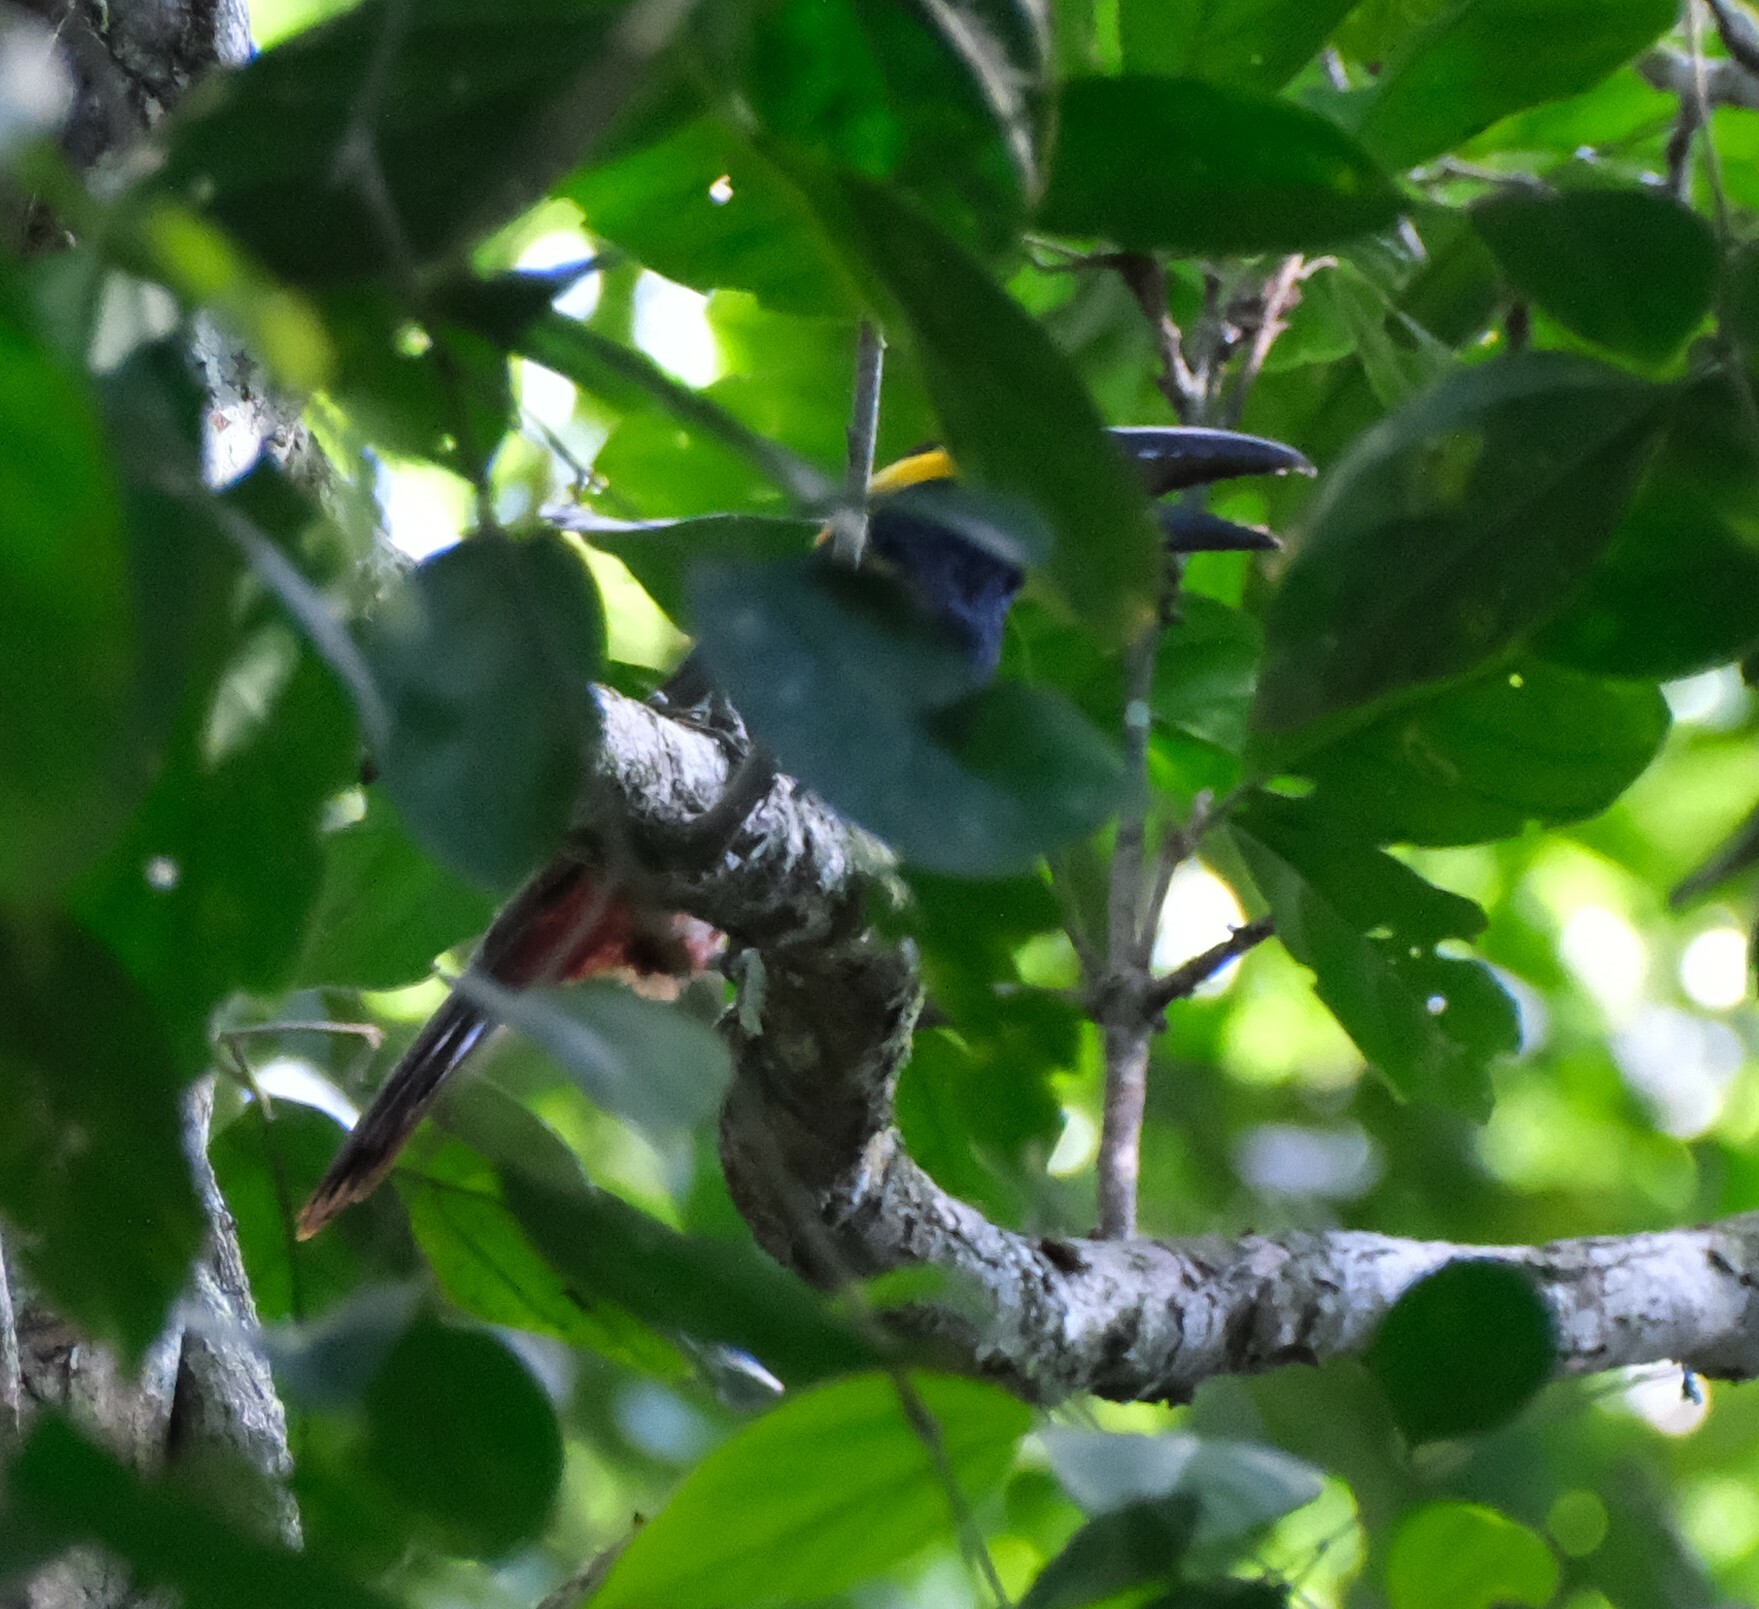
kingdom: Animalia
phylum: Chordata
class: Aves
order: Piciformes
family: Ramphastidae
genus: Selenidera
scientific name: Selenidera reinwardtii
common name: Golden-collared toucanet
